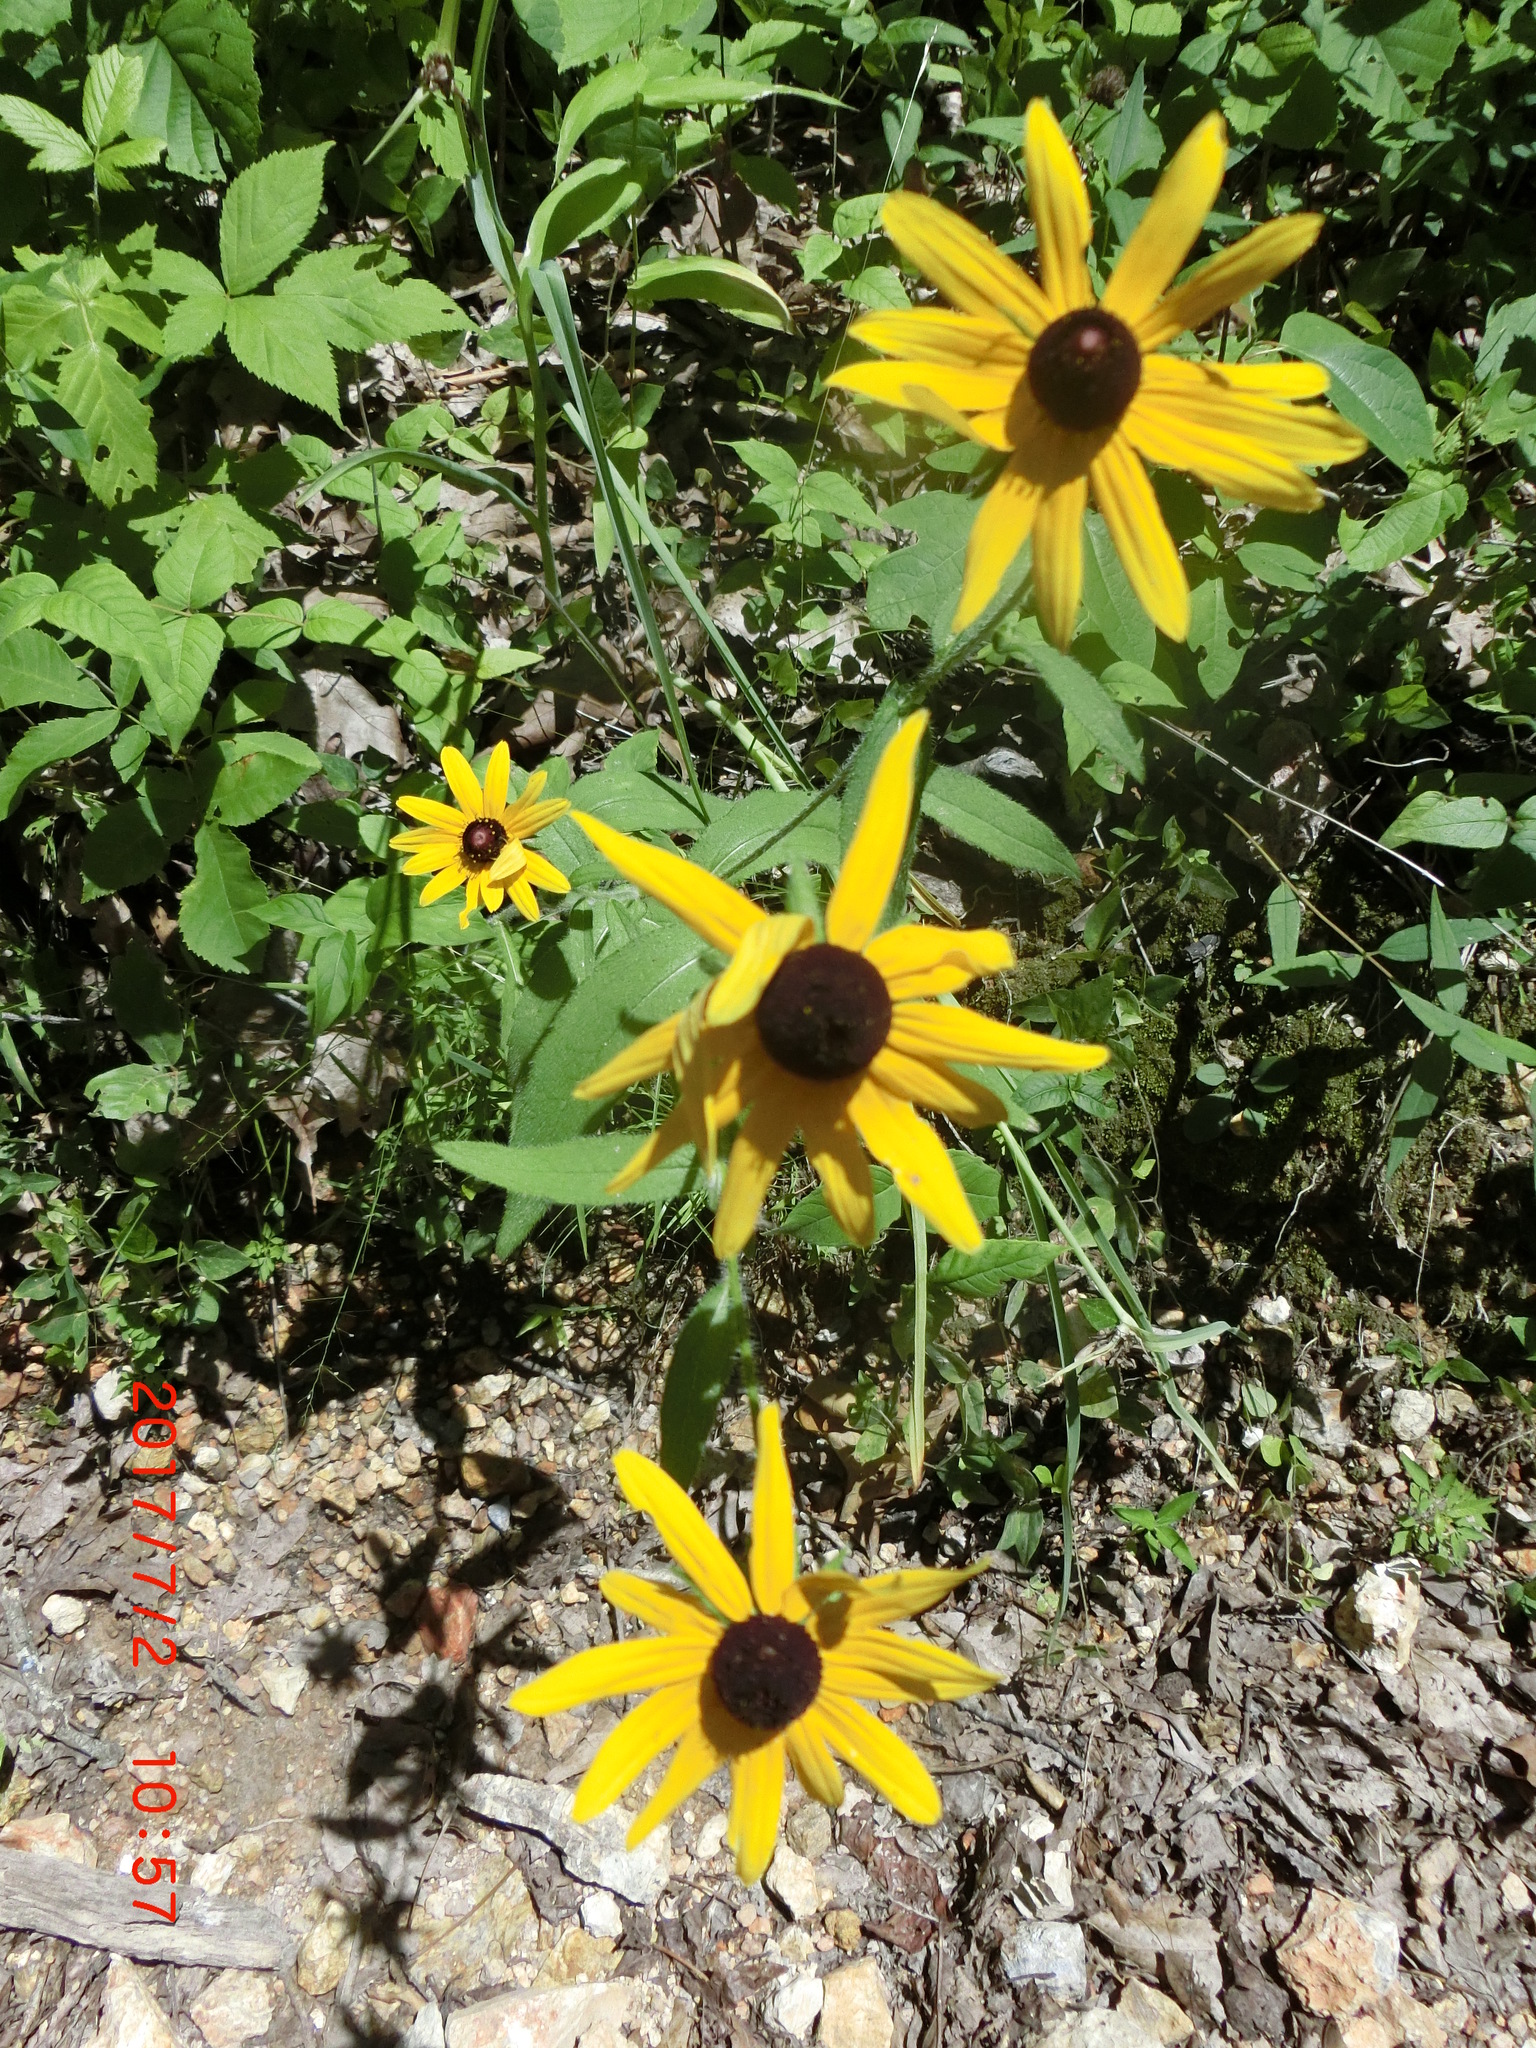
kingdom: Plantae
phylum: Tracheophyta
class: Magnoliopsida
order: Asterales
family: Asteraceae
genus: Rudbeckia
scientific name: Rudbeckia hirta
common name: Black-eyed-susan
